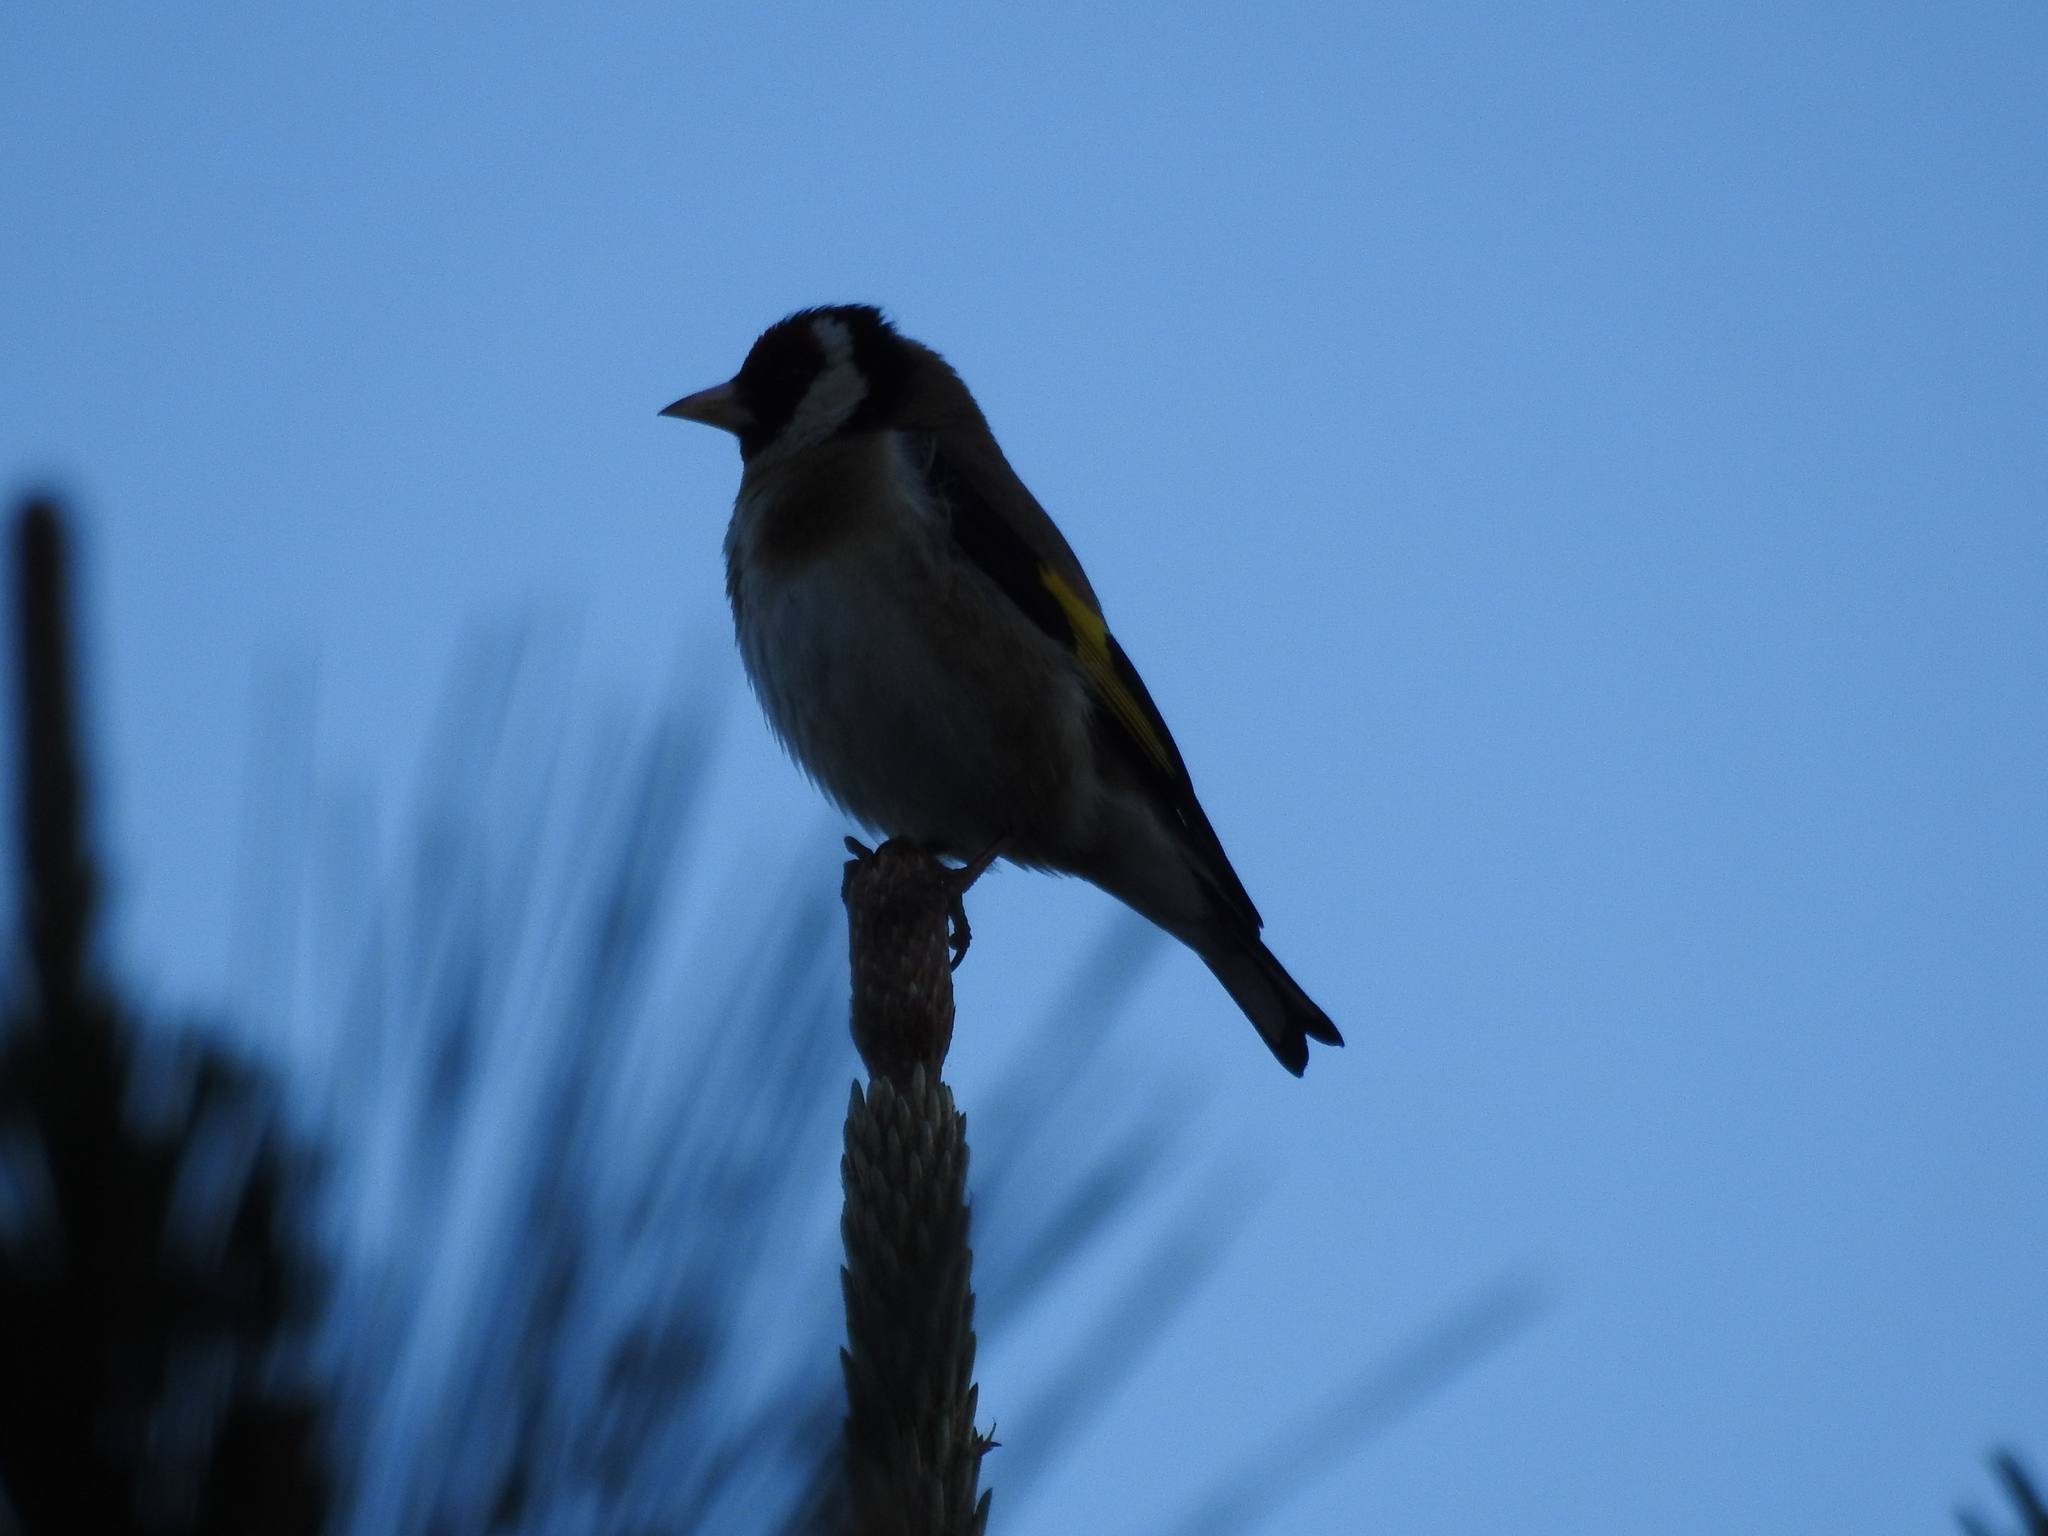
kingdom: Animalia
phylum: Chordata
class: Aves
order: Passeriformes
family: Fringillidae
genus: Carduelis
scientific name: Carduelis carduelis
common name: European goldfinch
